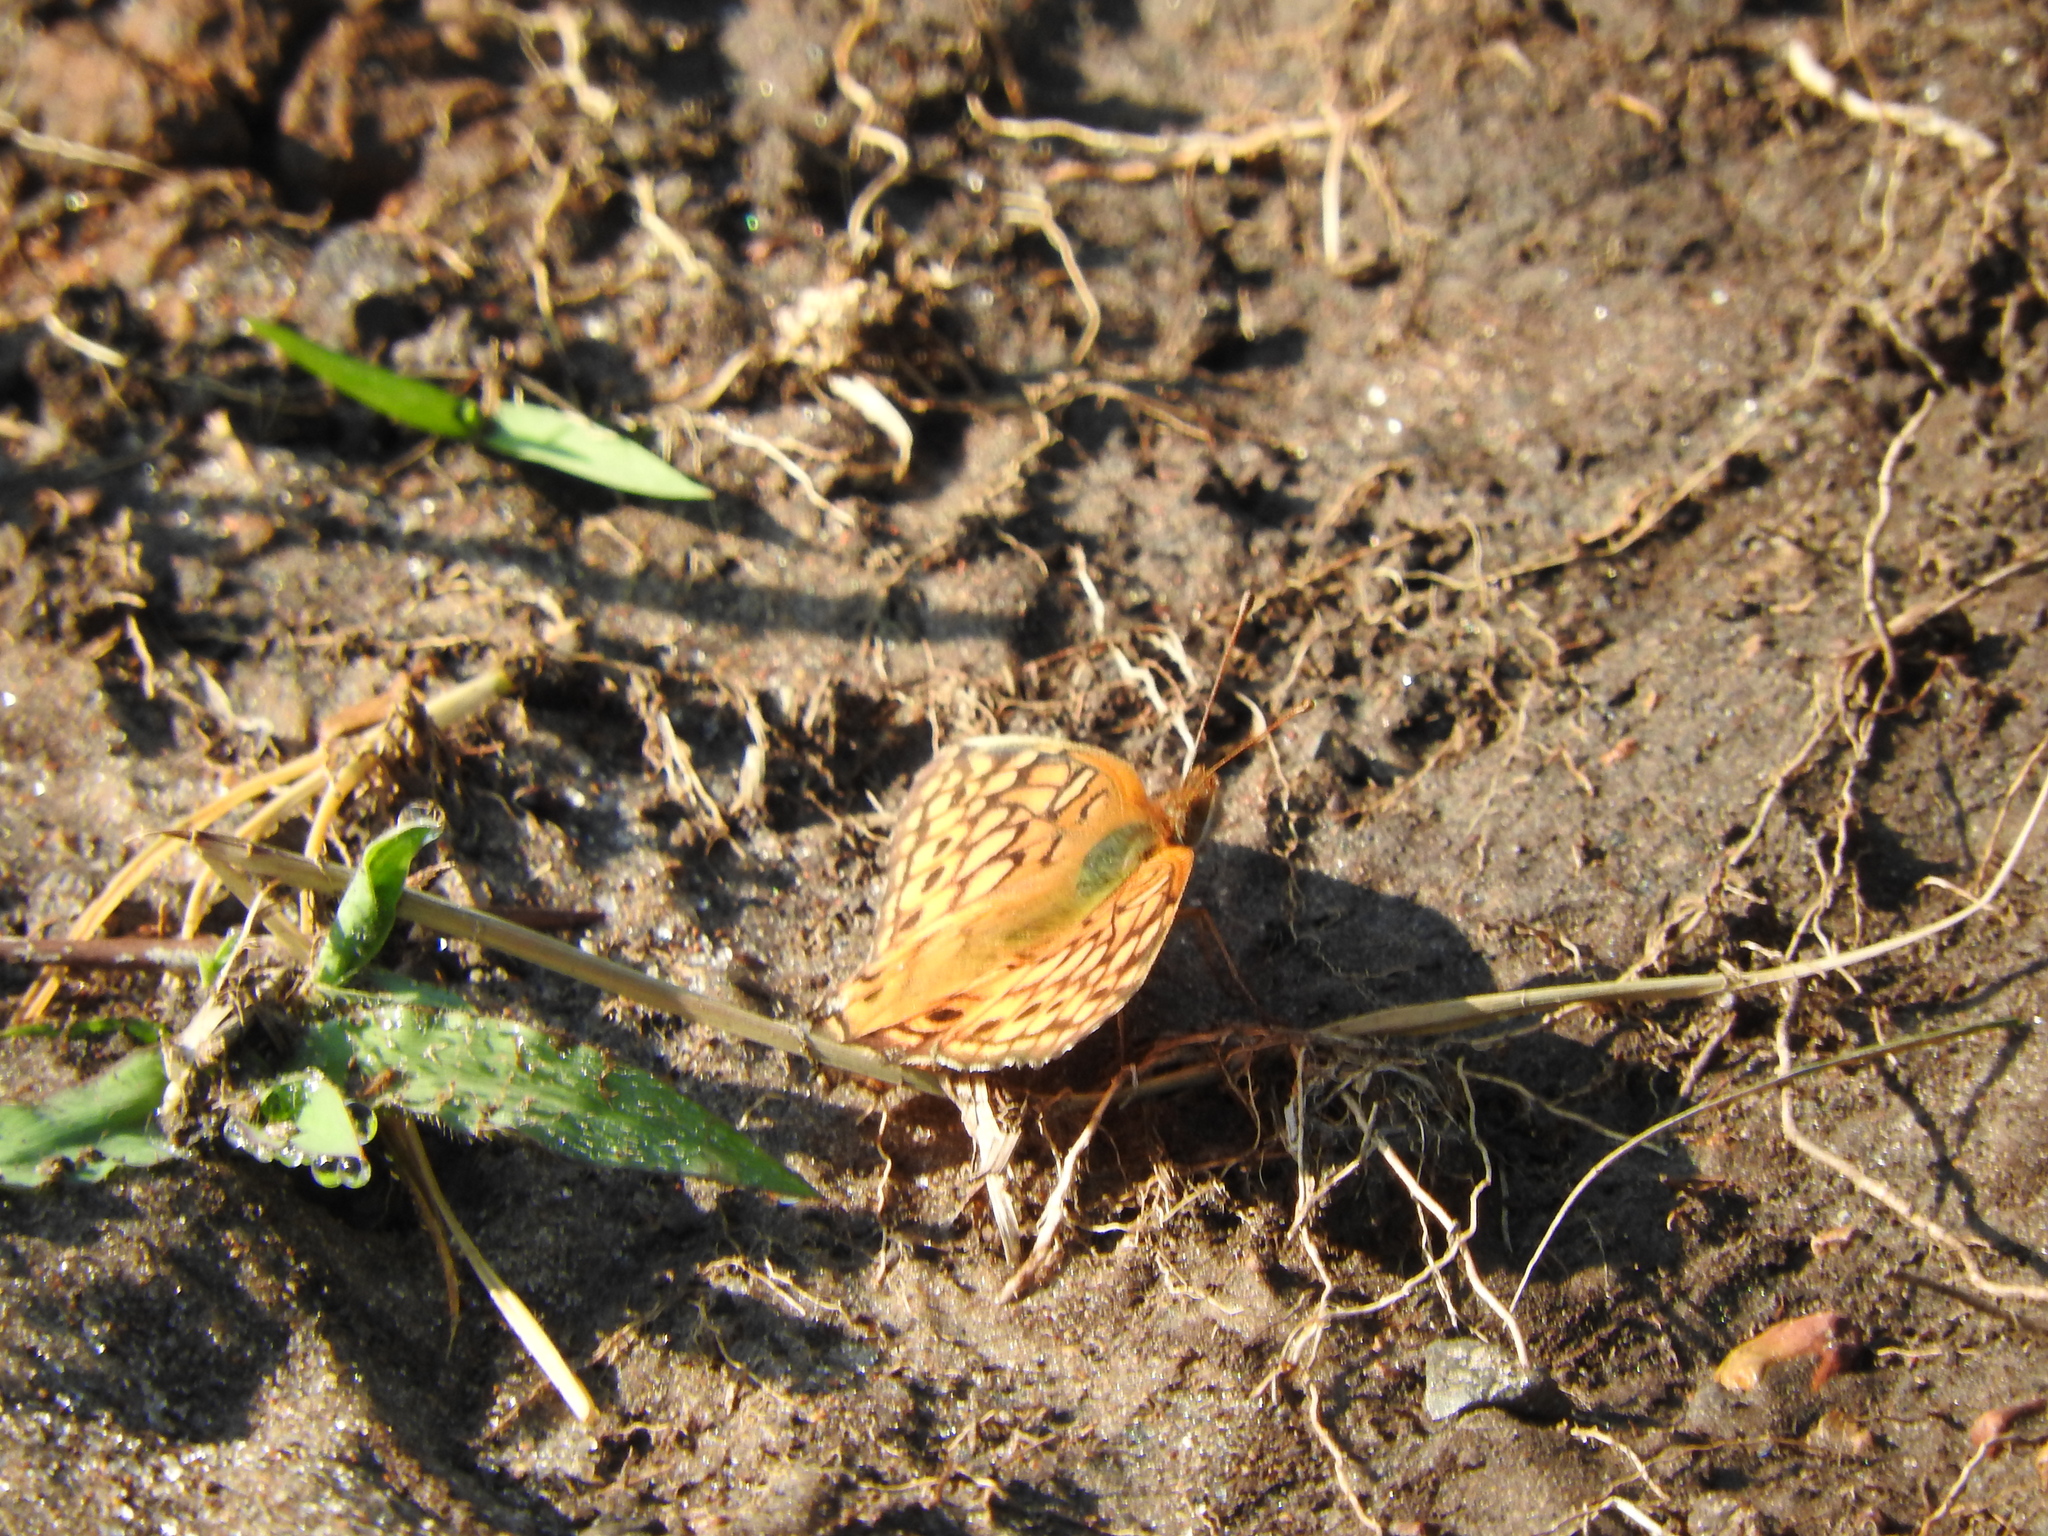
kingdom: Animalia
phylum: Arthropoda
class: Insecta
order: Lepidoptera
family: Nymphalidae
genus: Euptoieta
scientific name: Euptoieta claudia
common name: Variegated fritillary
